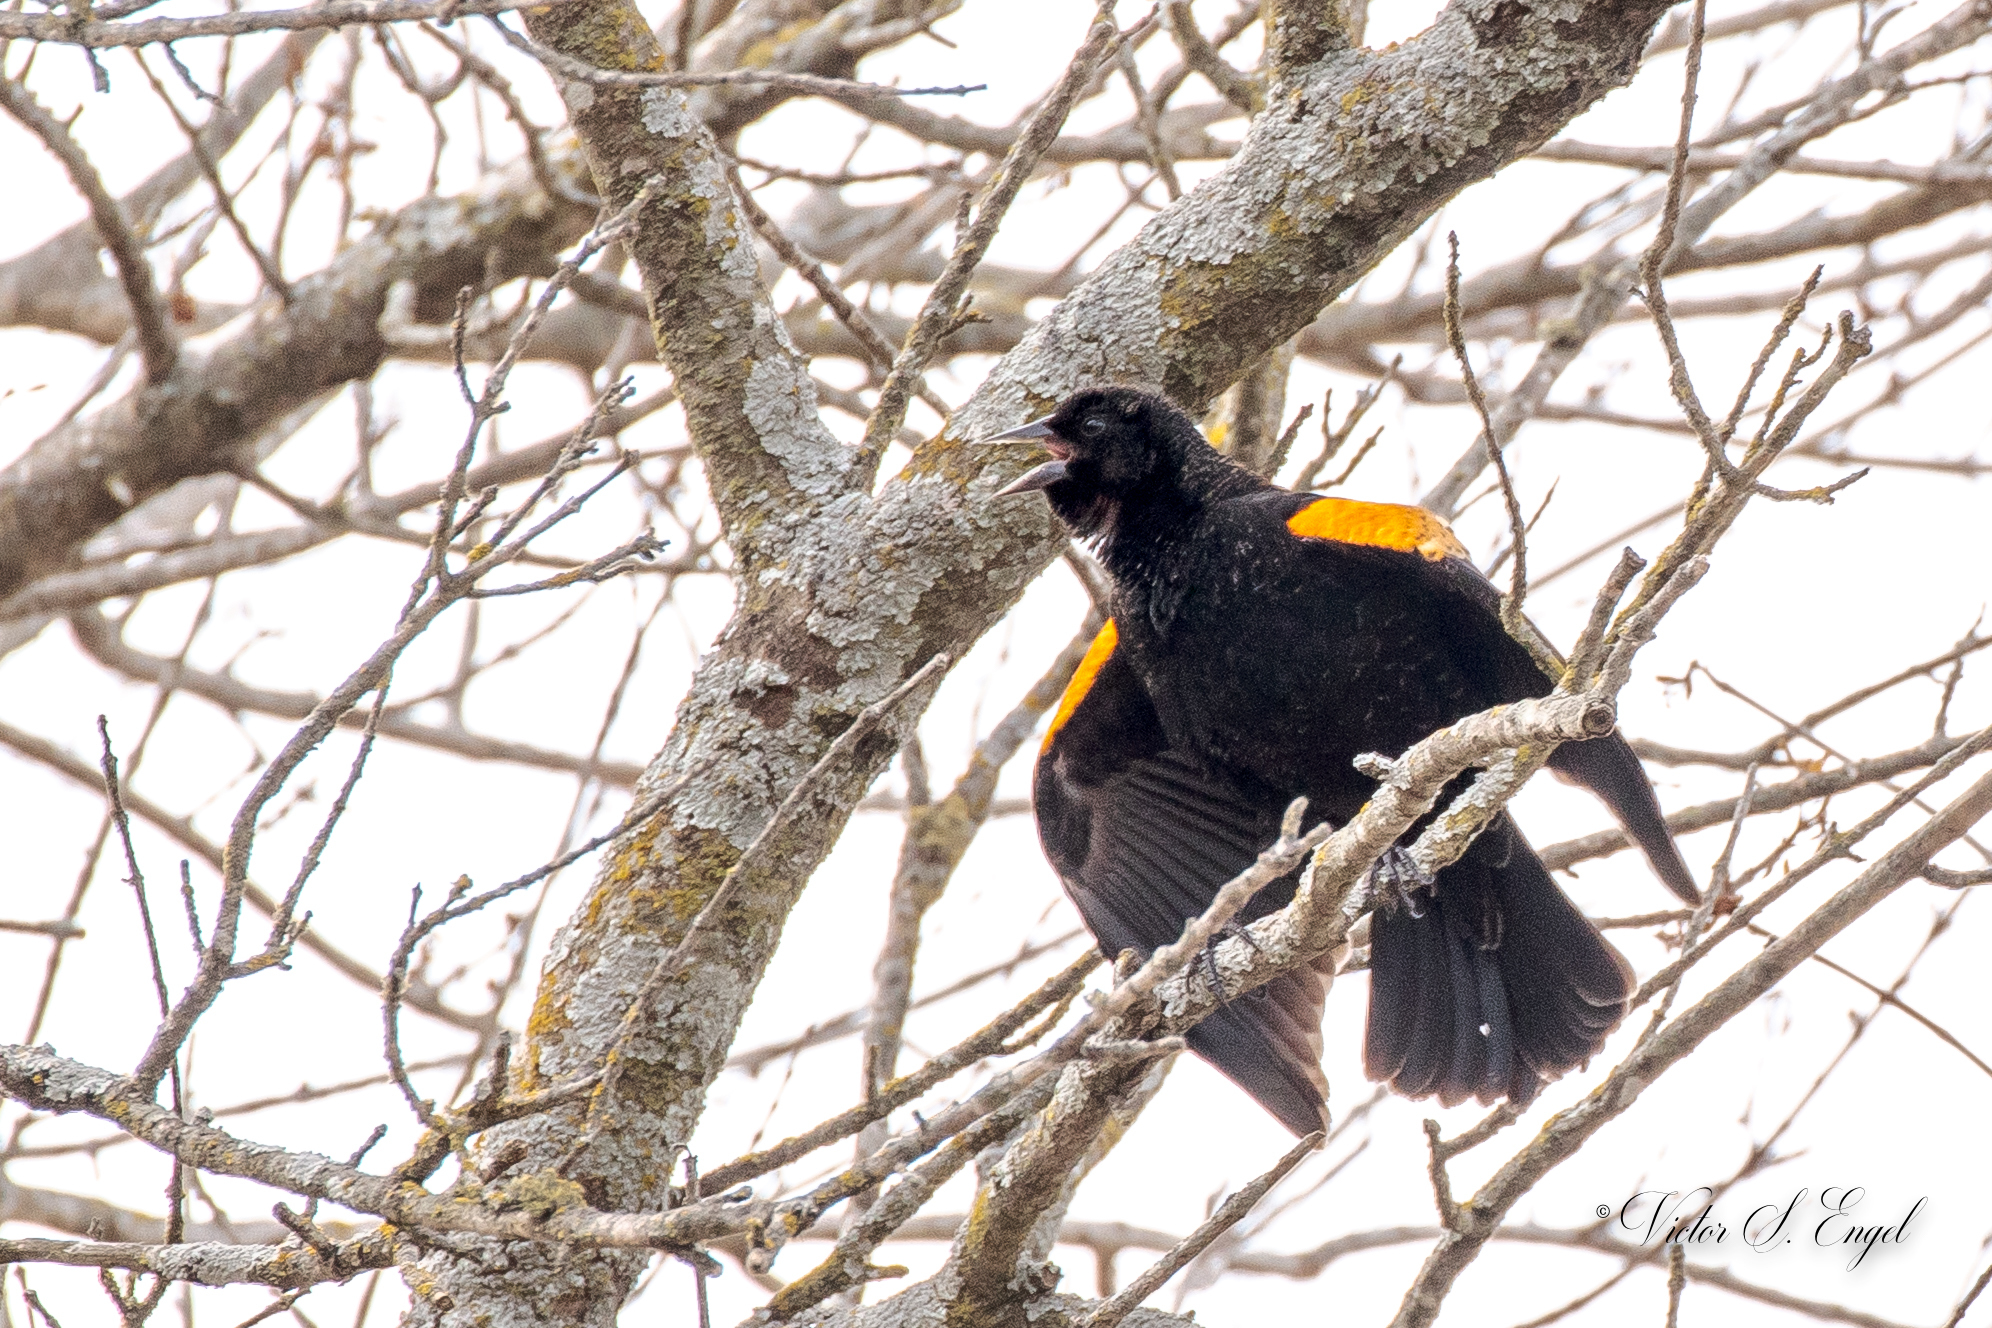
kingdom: Animalia
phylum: Chordata
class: Aves
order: Passeriformes
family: Icteridae
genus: Agelaius
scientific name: Agelaius phoeniceus
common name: Red-winged blackbird
